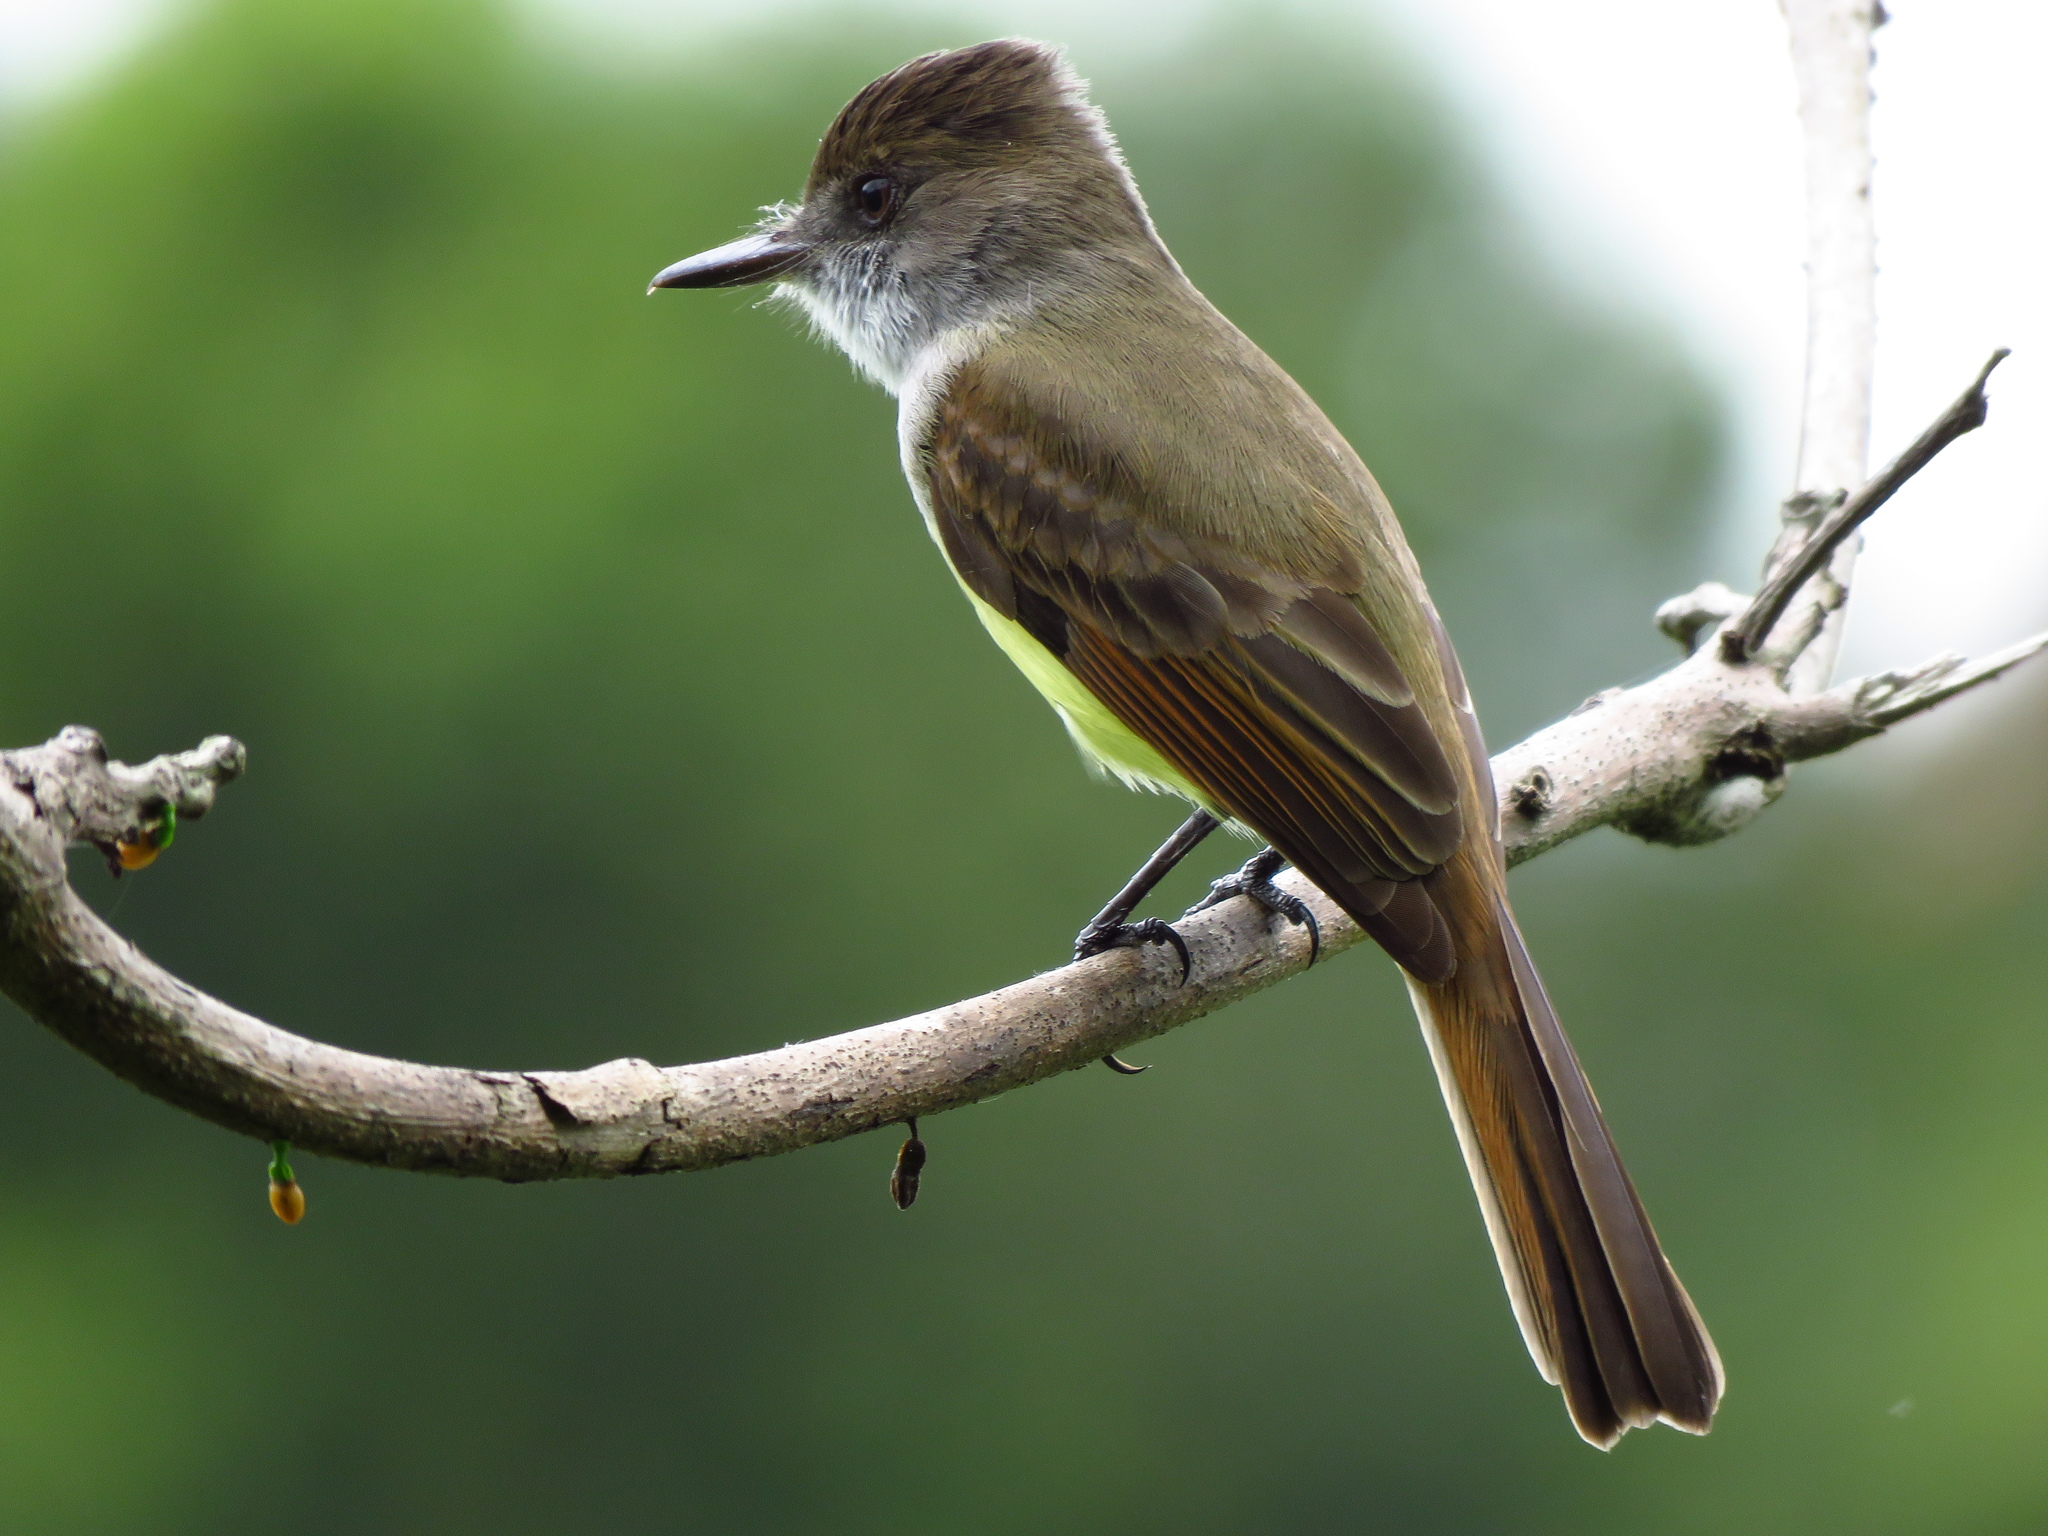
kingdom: Animalia
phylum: Chordata
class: Aves
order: Passeriformes
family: Tyrannidae
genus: Myiarchus
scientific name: Myiarchus tyrannulus
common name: Brown-crested flycatcher
